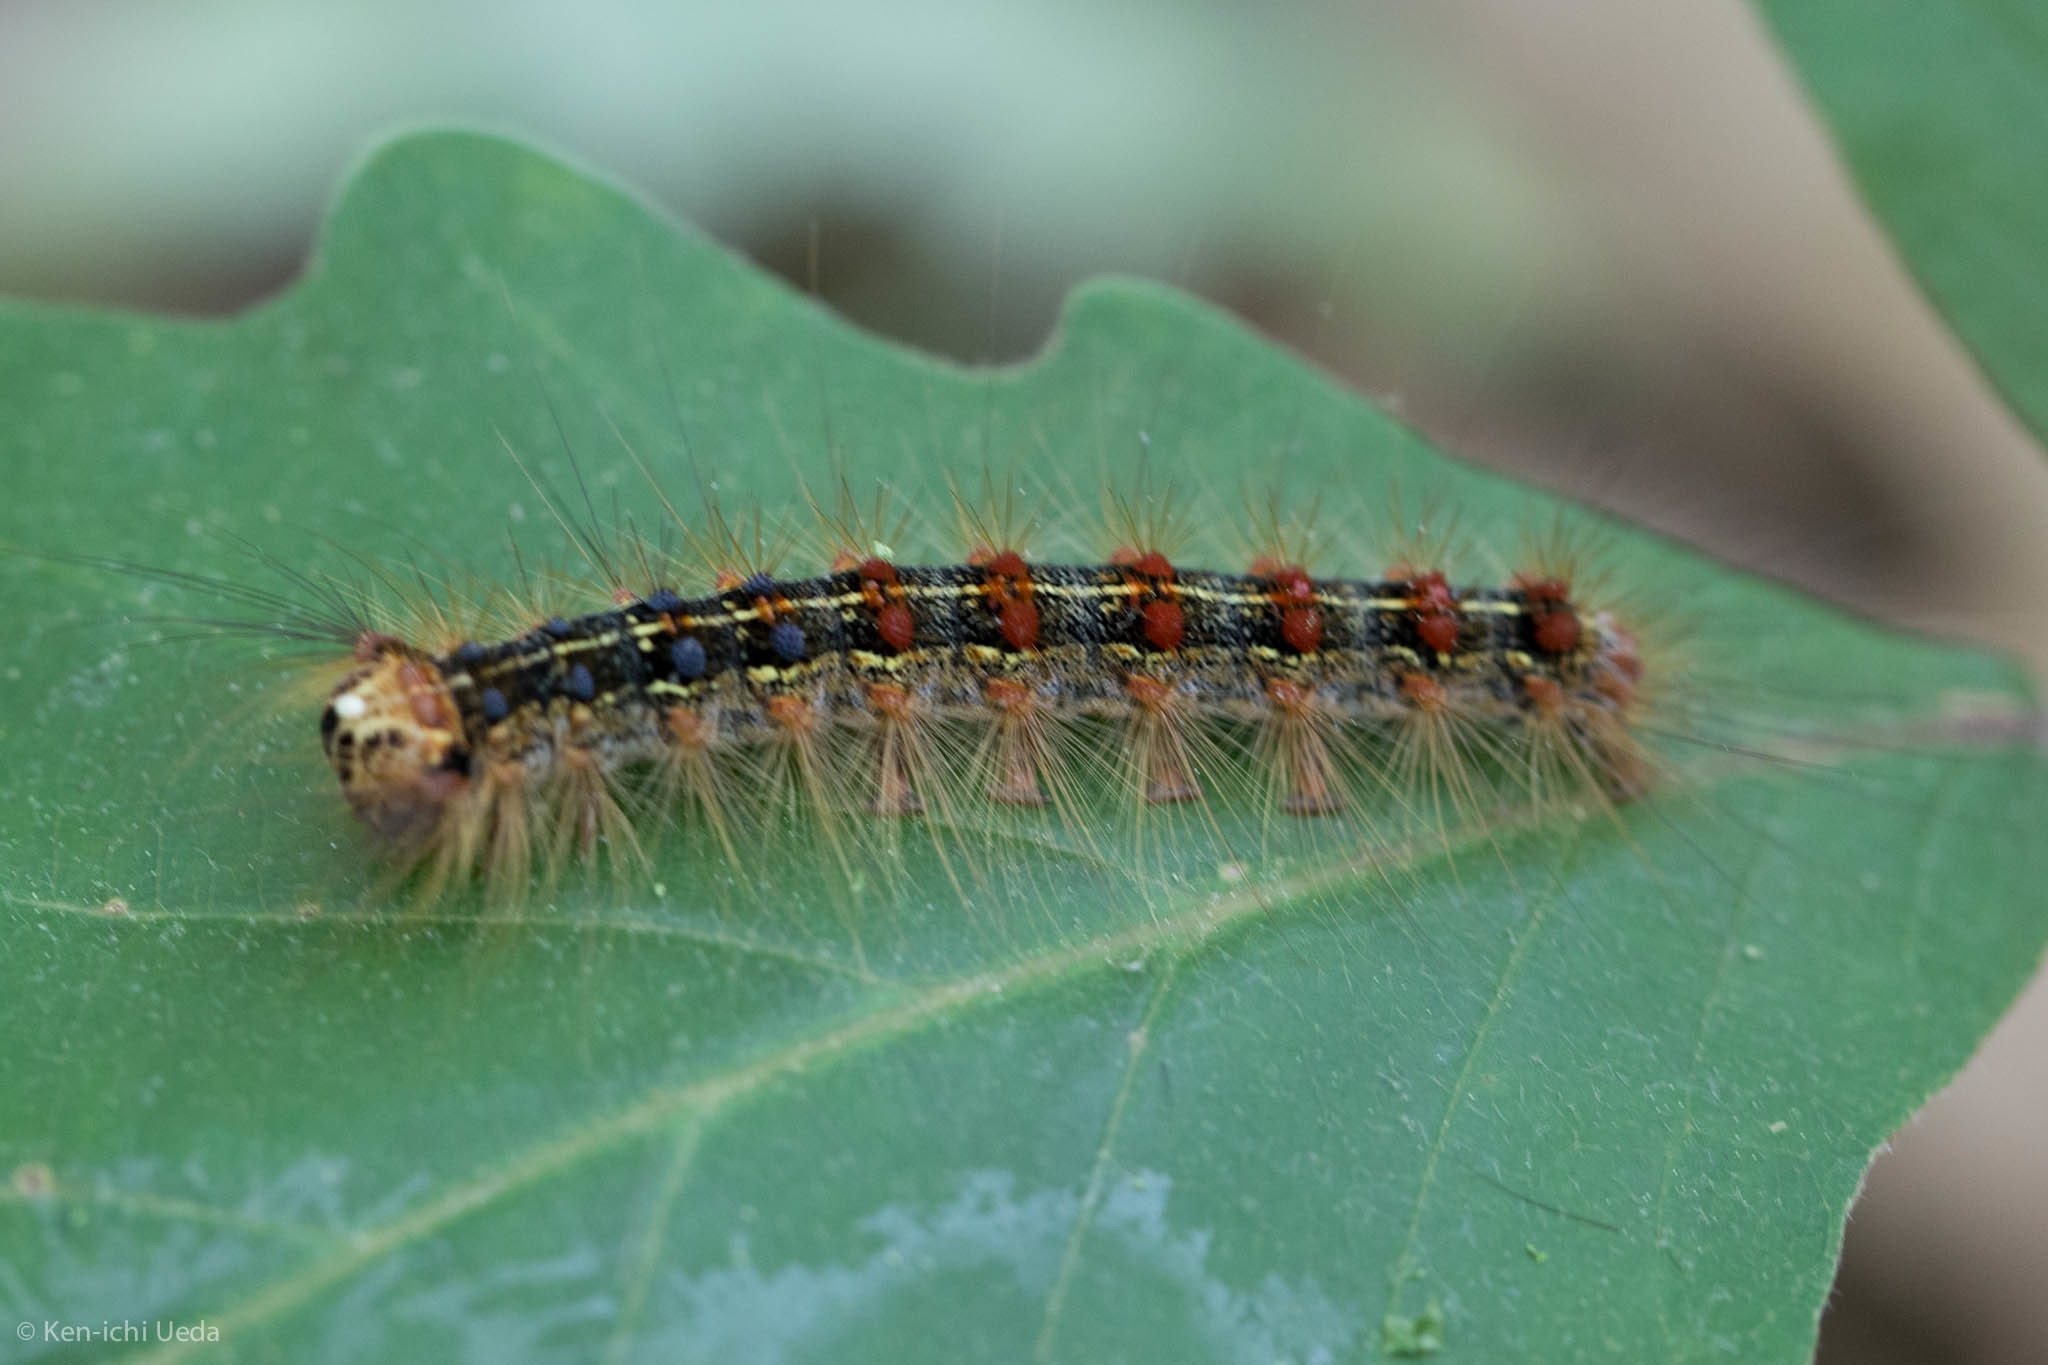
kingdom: Animalia
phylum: Arthropoda
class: Insecta
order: Lepidoptera
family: Erebidae
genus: Lymantria
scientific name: Lymantria dispar
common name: Gypsy moth
